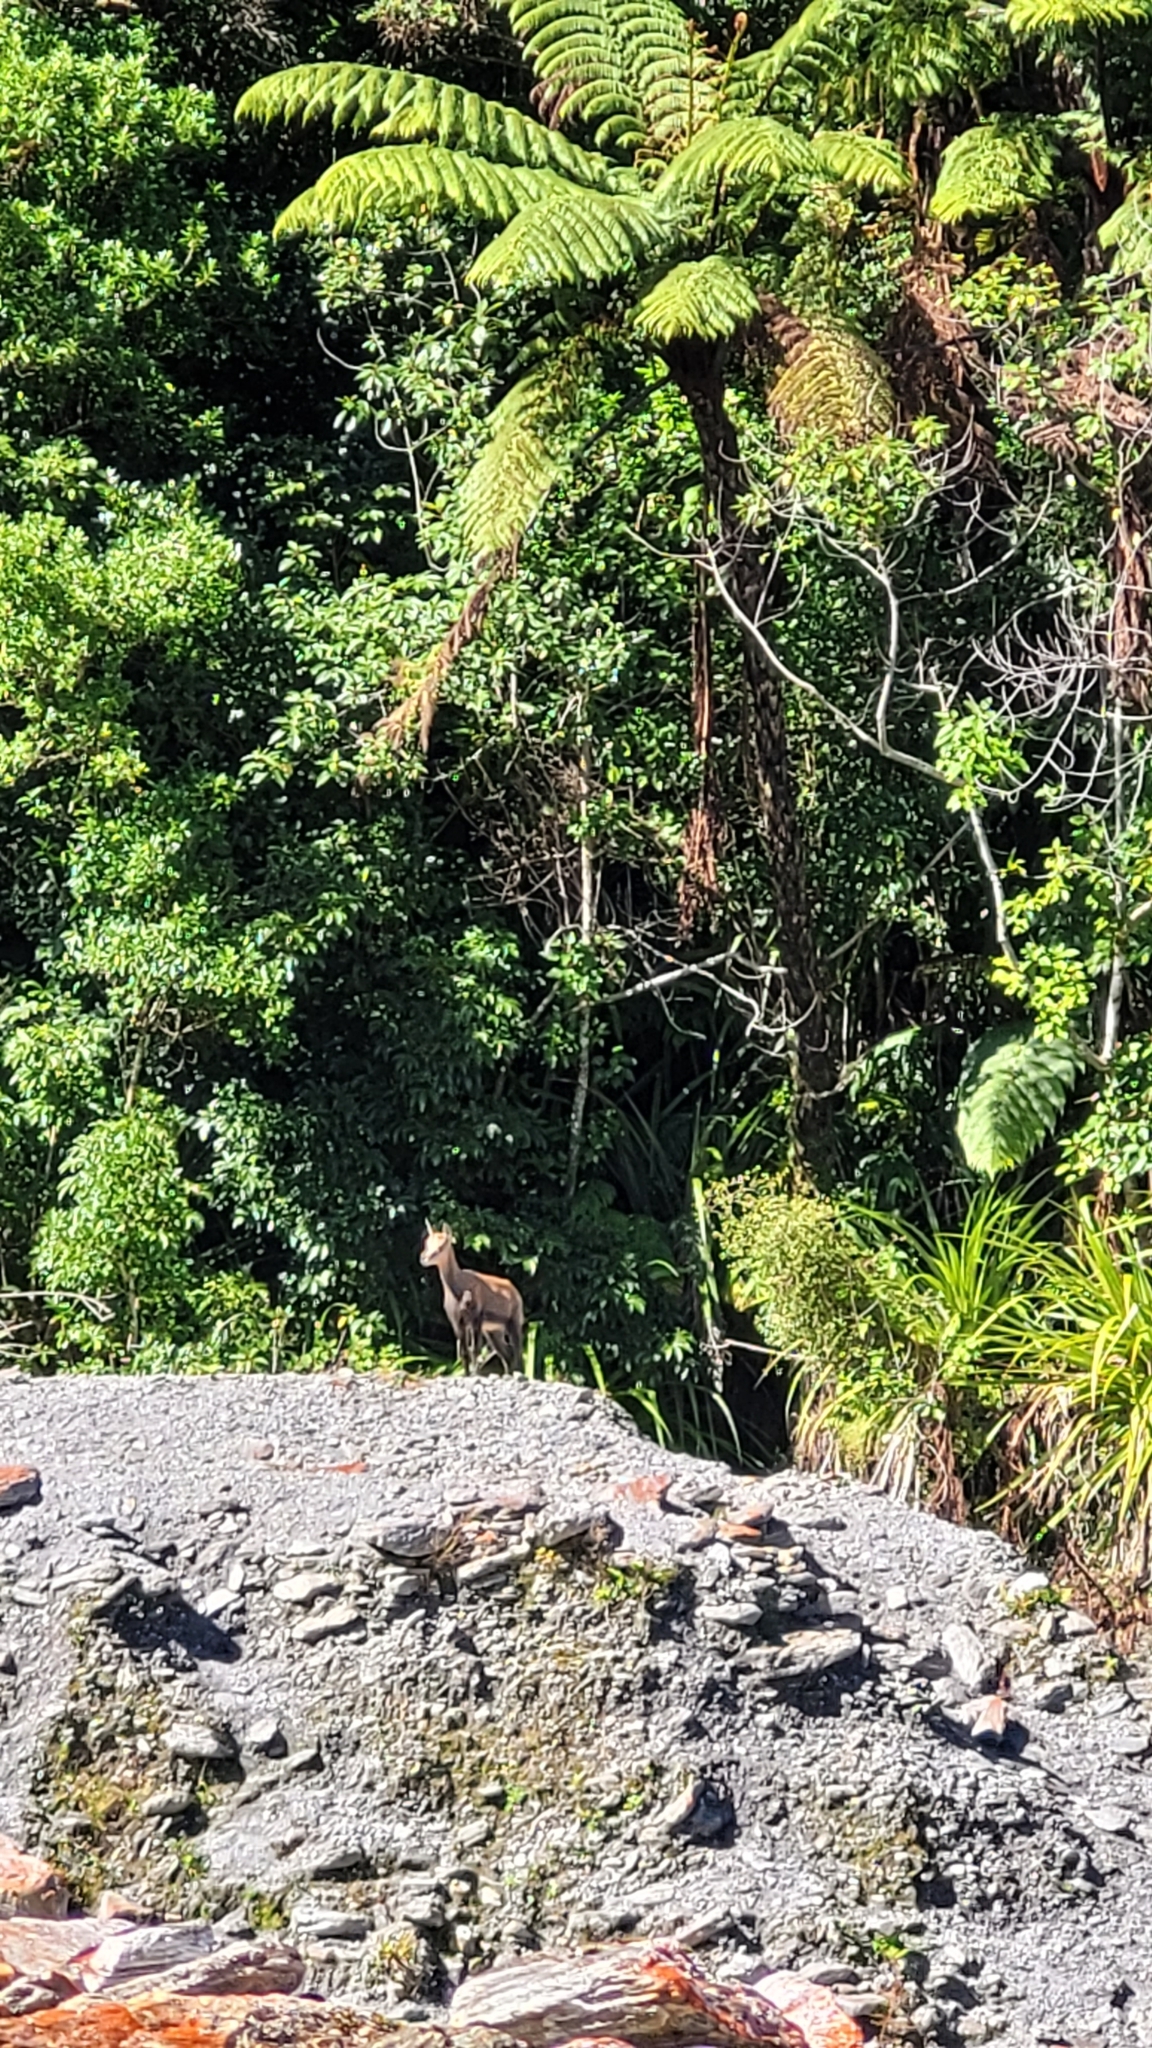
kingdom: Animalia
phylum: Chordata
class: Mammalia
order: Artiodactyla
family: Bovidae
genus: Rupicapra
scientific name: Rupicapra rupicapra
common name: Chamois
